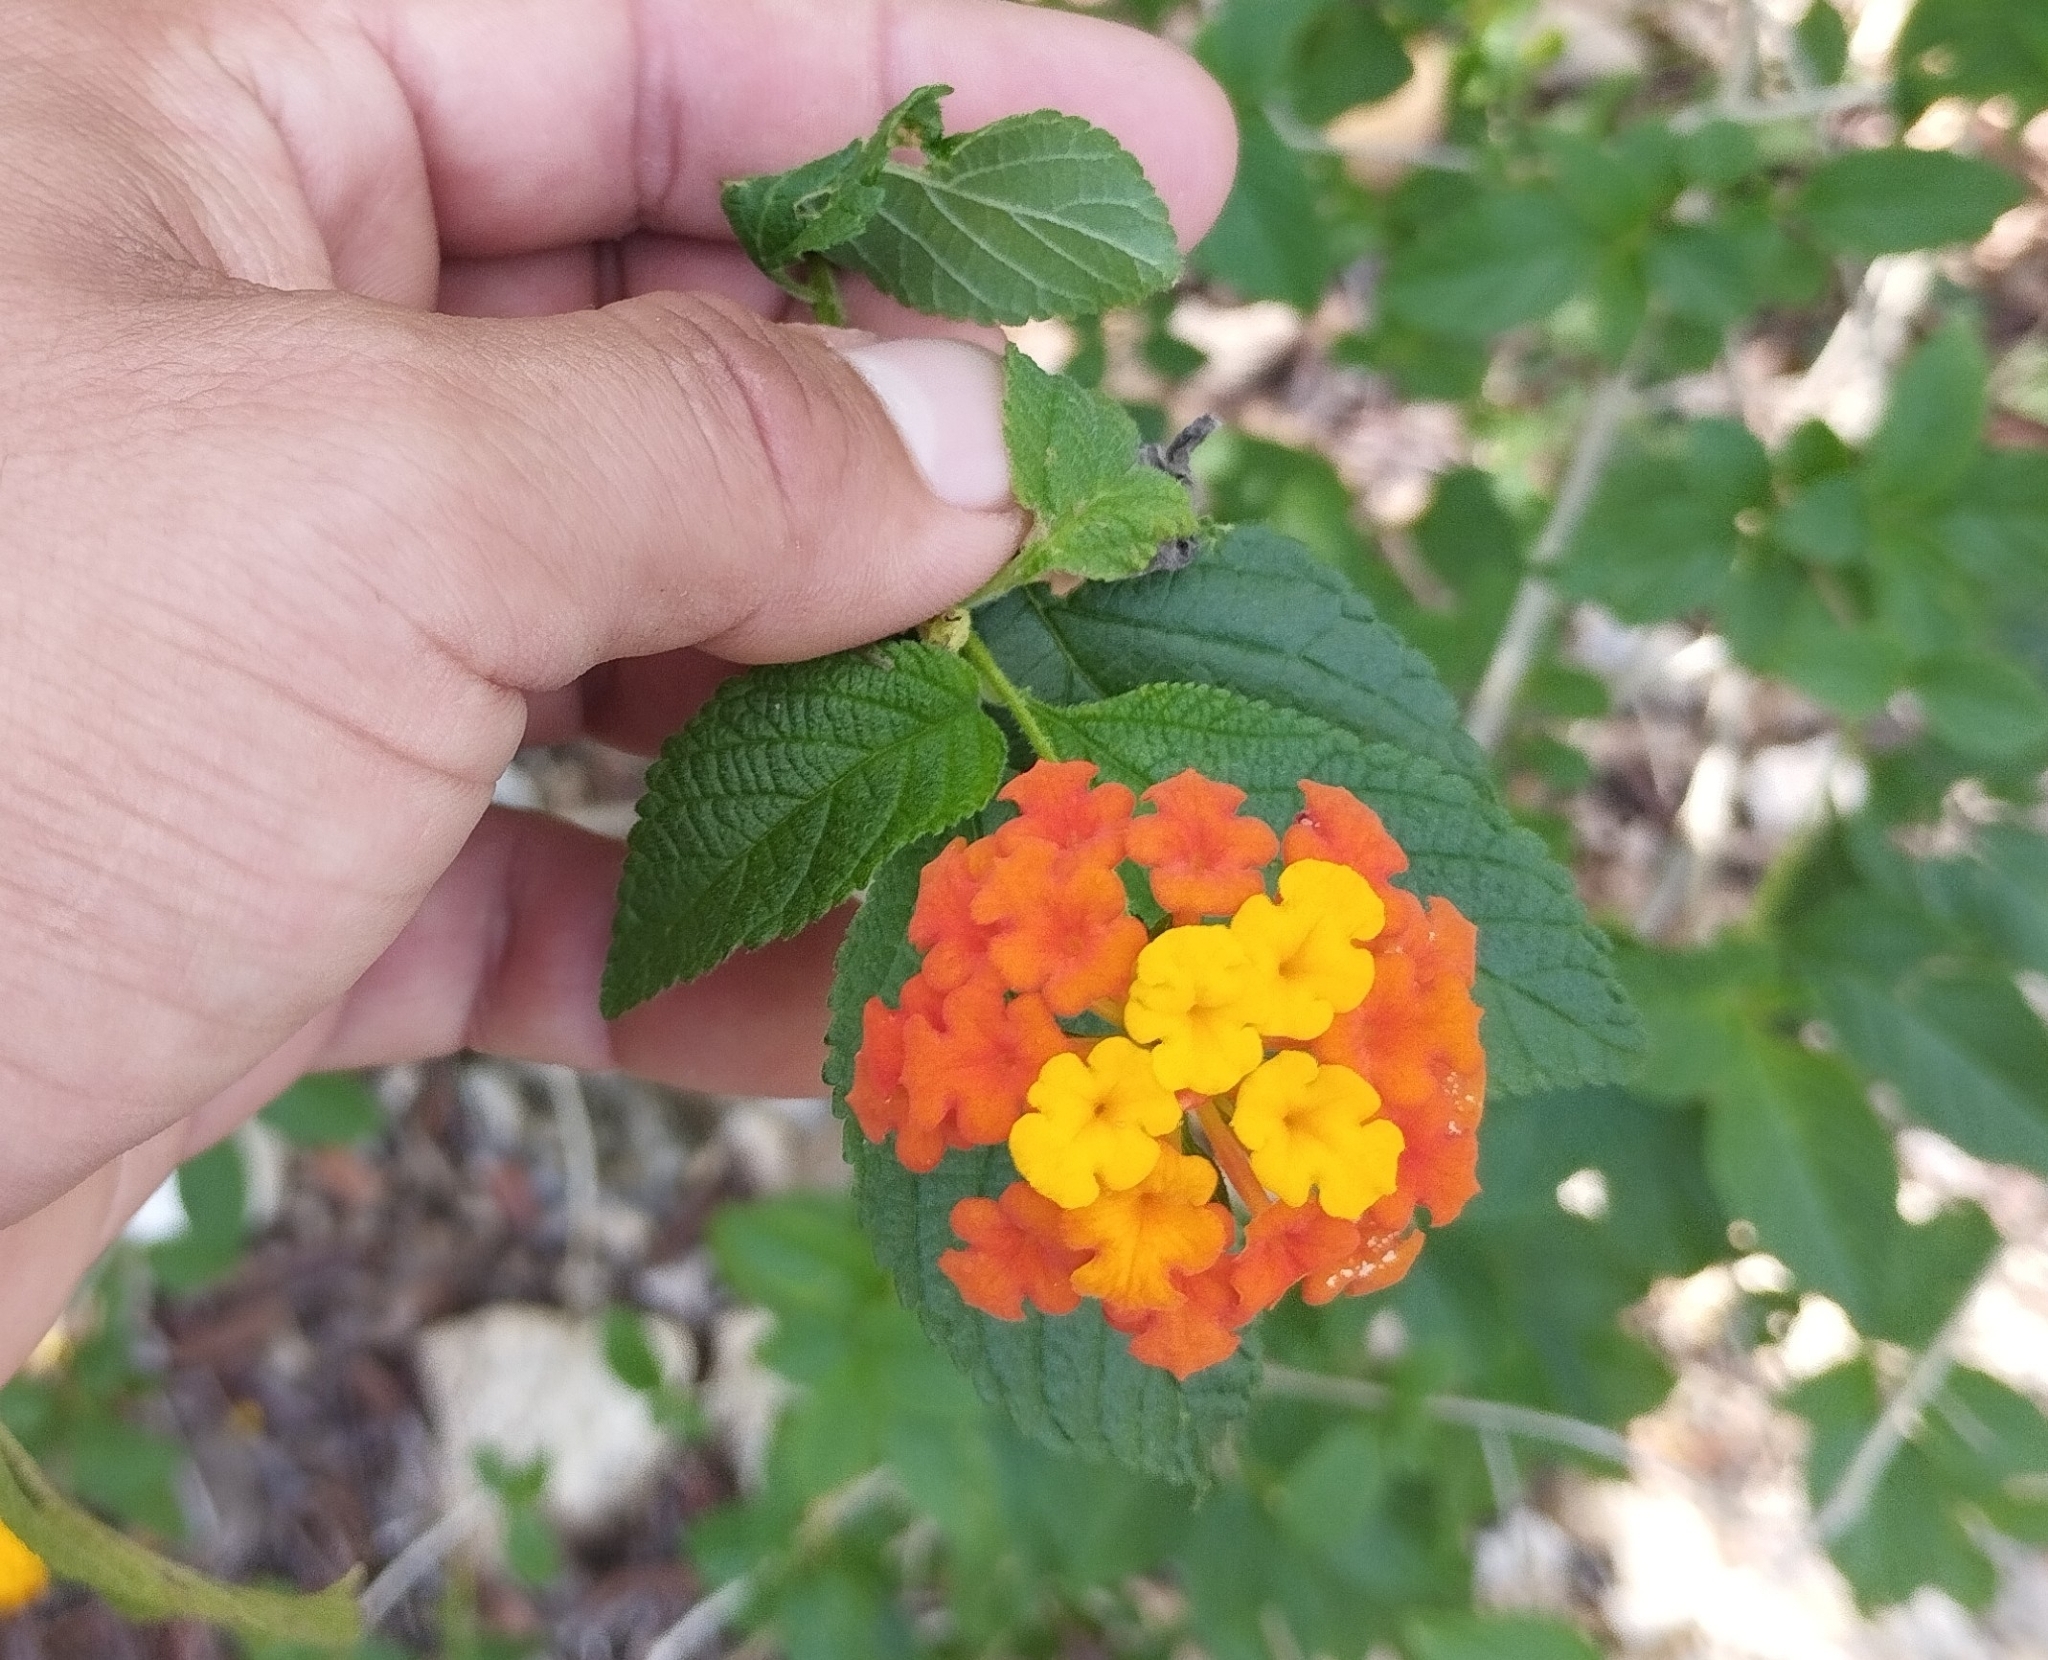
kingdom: Plantae
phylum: Tracheophyta
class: Magnoliopsida
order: Lamiales
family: Verbenaceae
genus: Lantana
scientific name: Lantana camara
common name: Lantana
